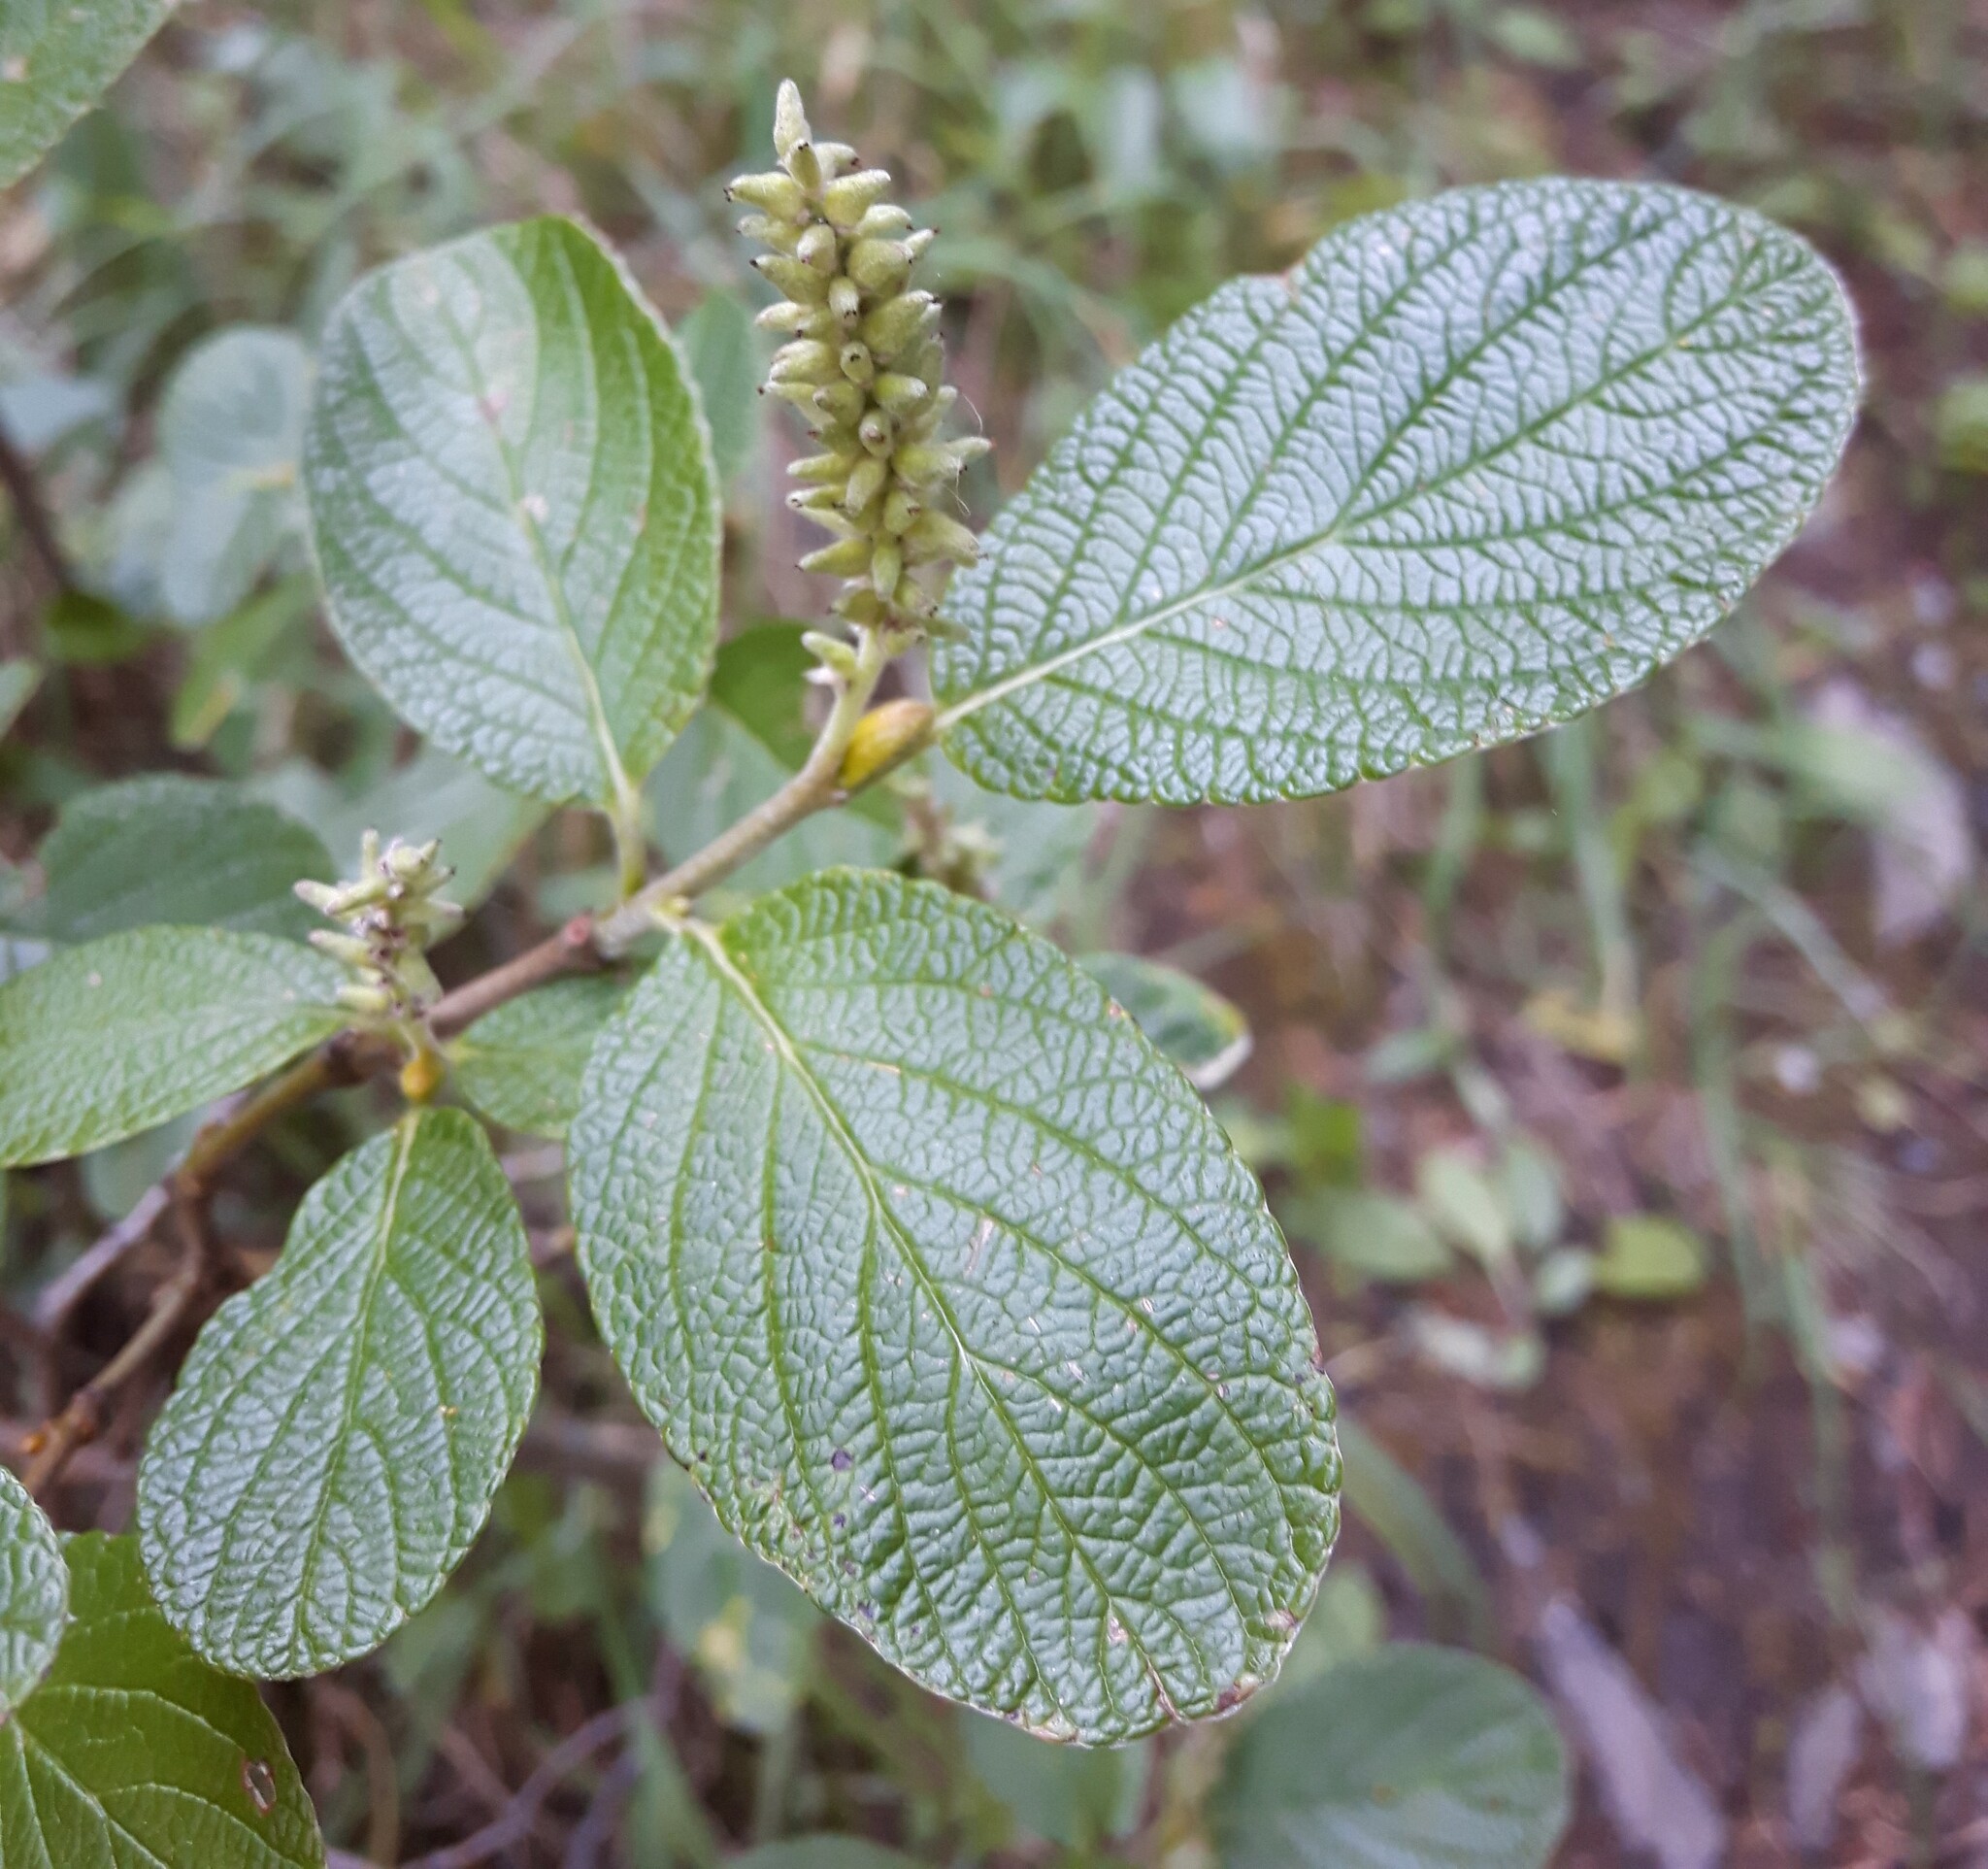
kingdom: Plantae
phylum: Tracheophyta
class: Magnoliopsida
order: Malpighiales
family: Salicaceae
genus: Salix
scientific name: Salix vestita
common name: Hairy willow
